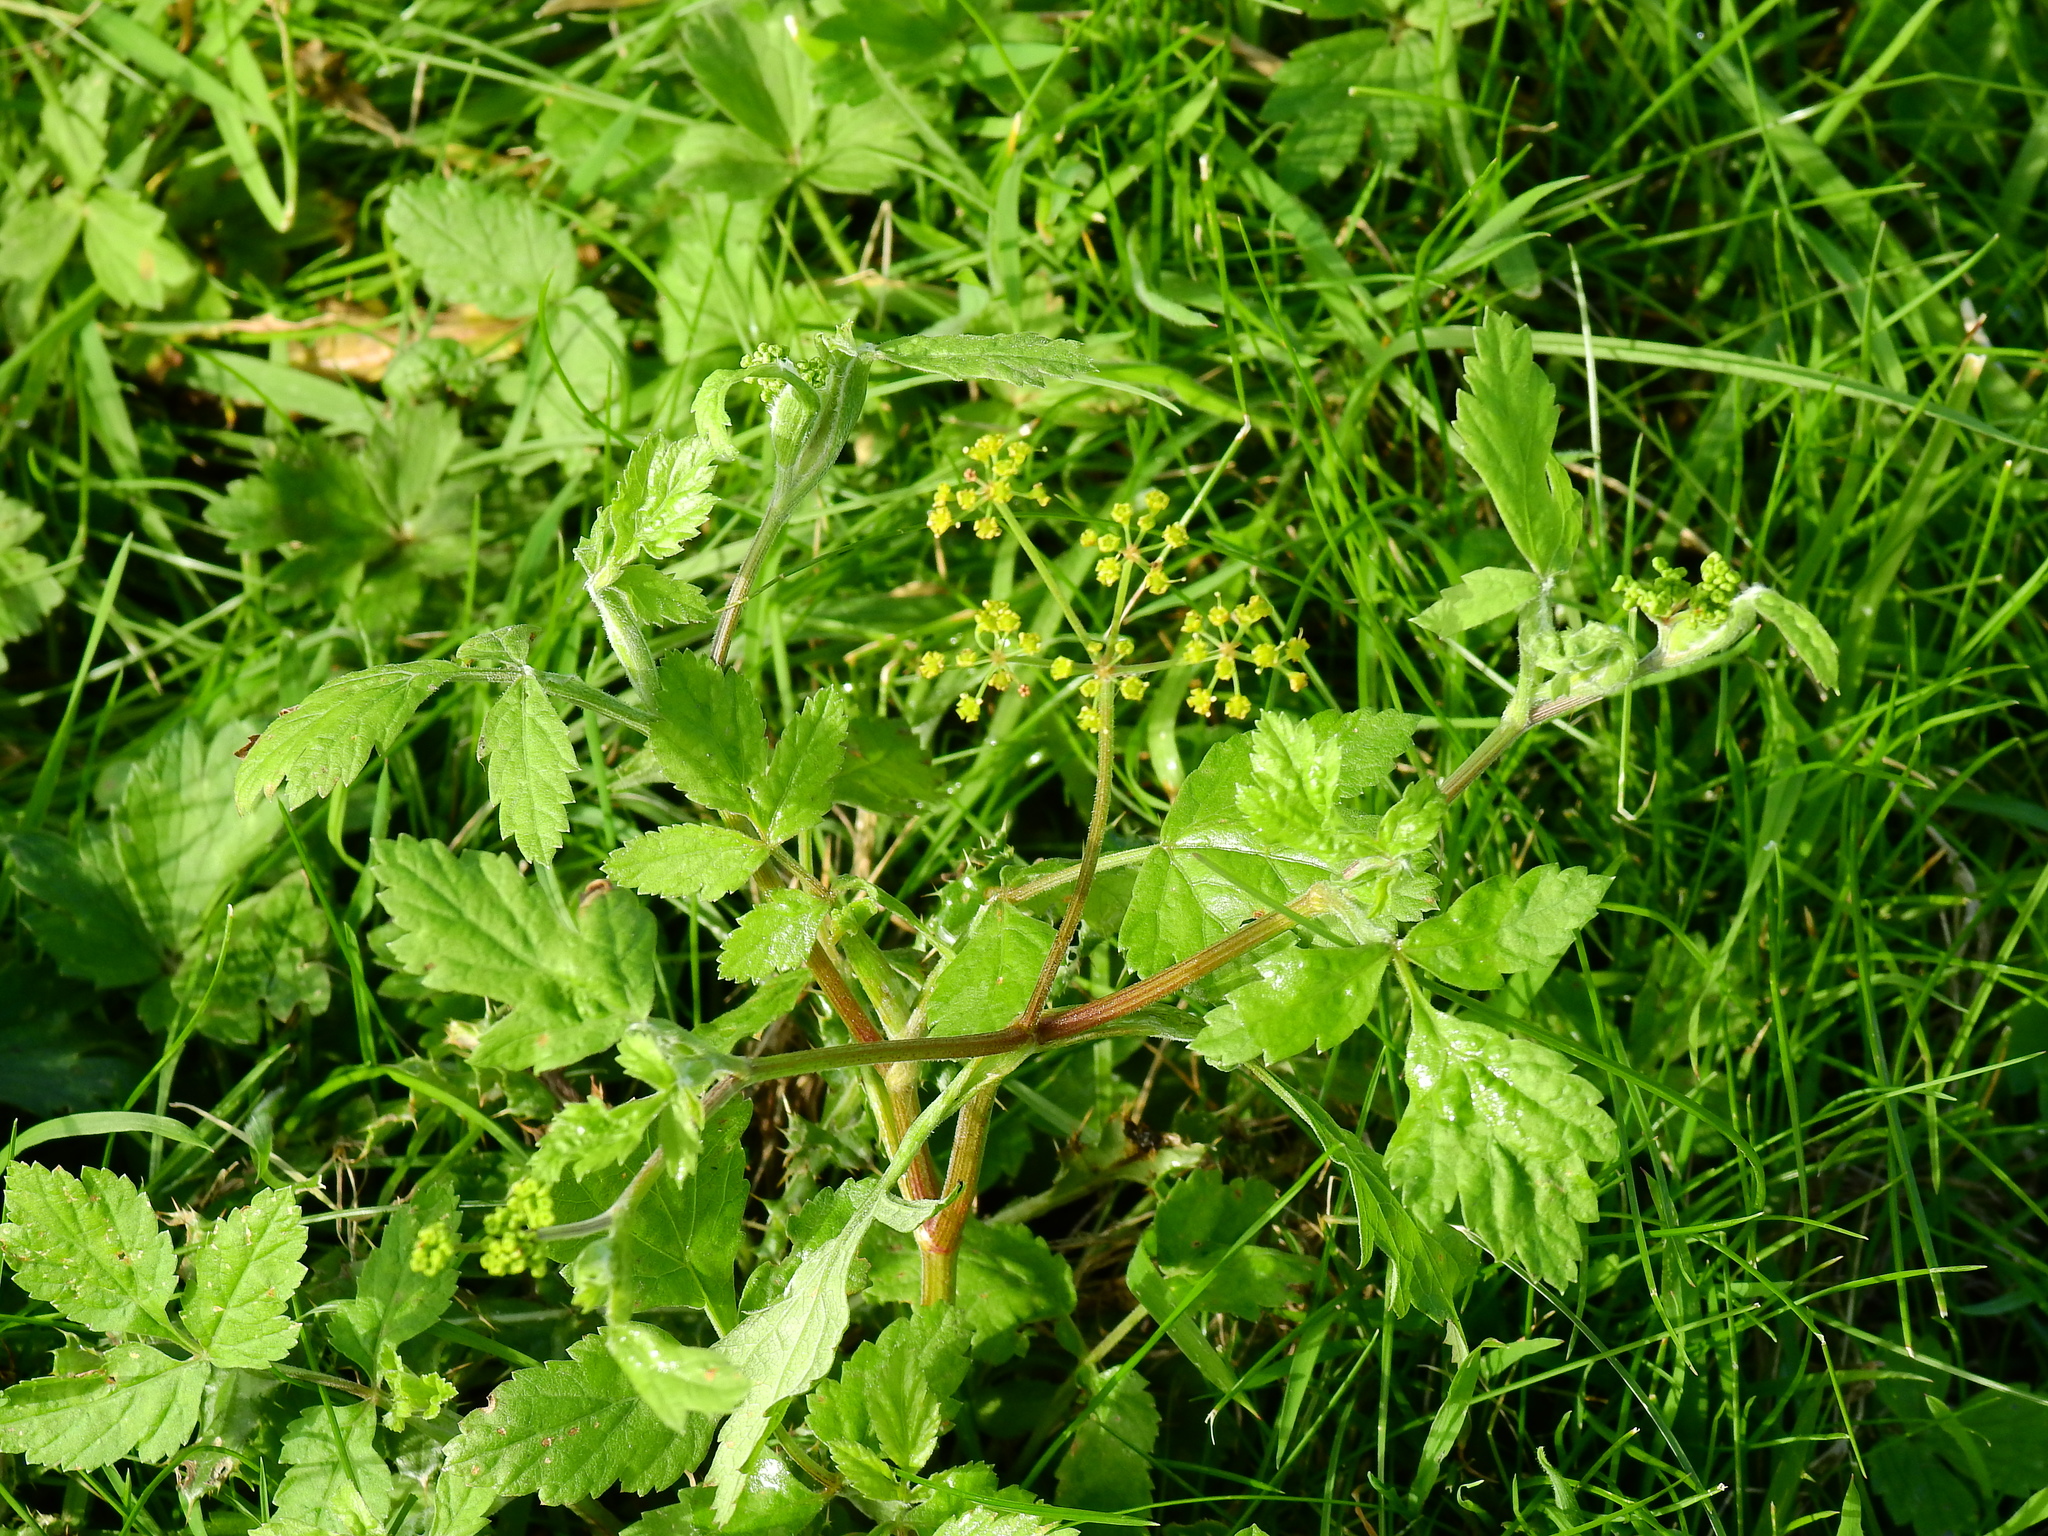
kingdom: Plantae
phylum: Tracheophyta
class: Magnoliopsida
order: Apiales
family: Apiaceae
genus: Pastinaca
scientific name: Pastinaca sativa
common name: Wild parsnip
